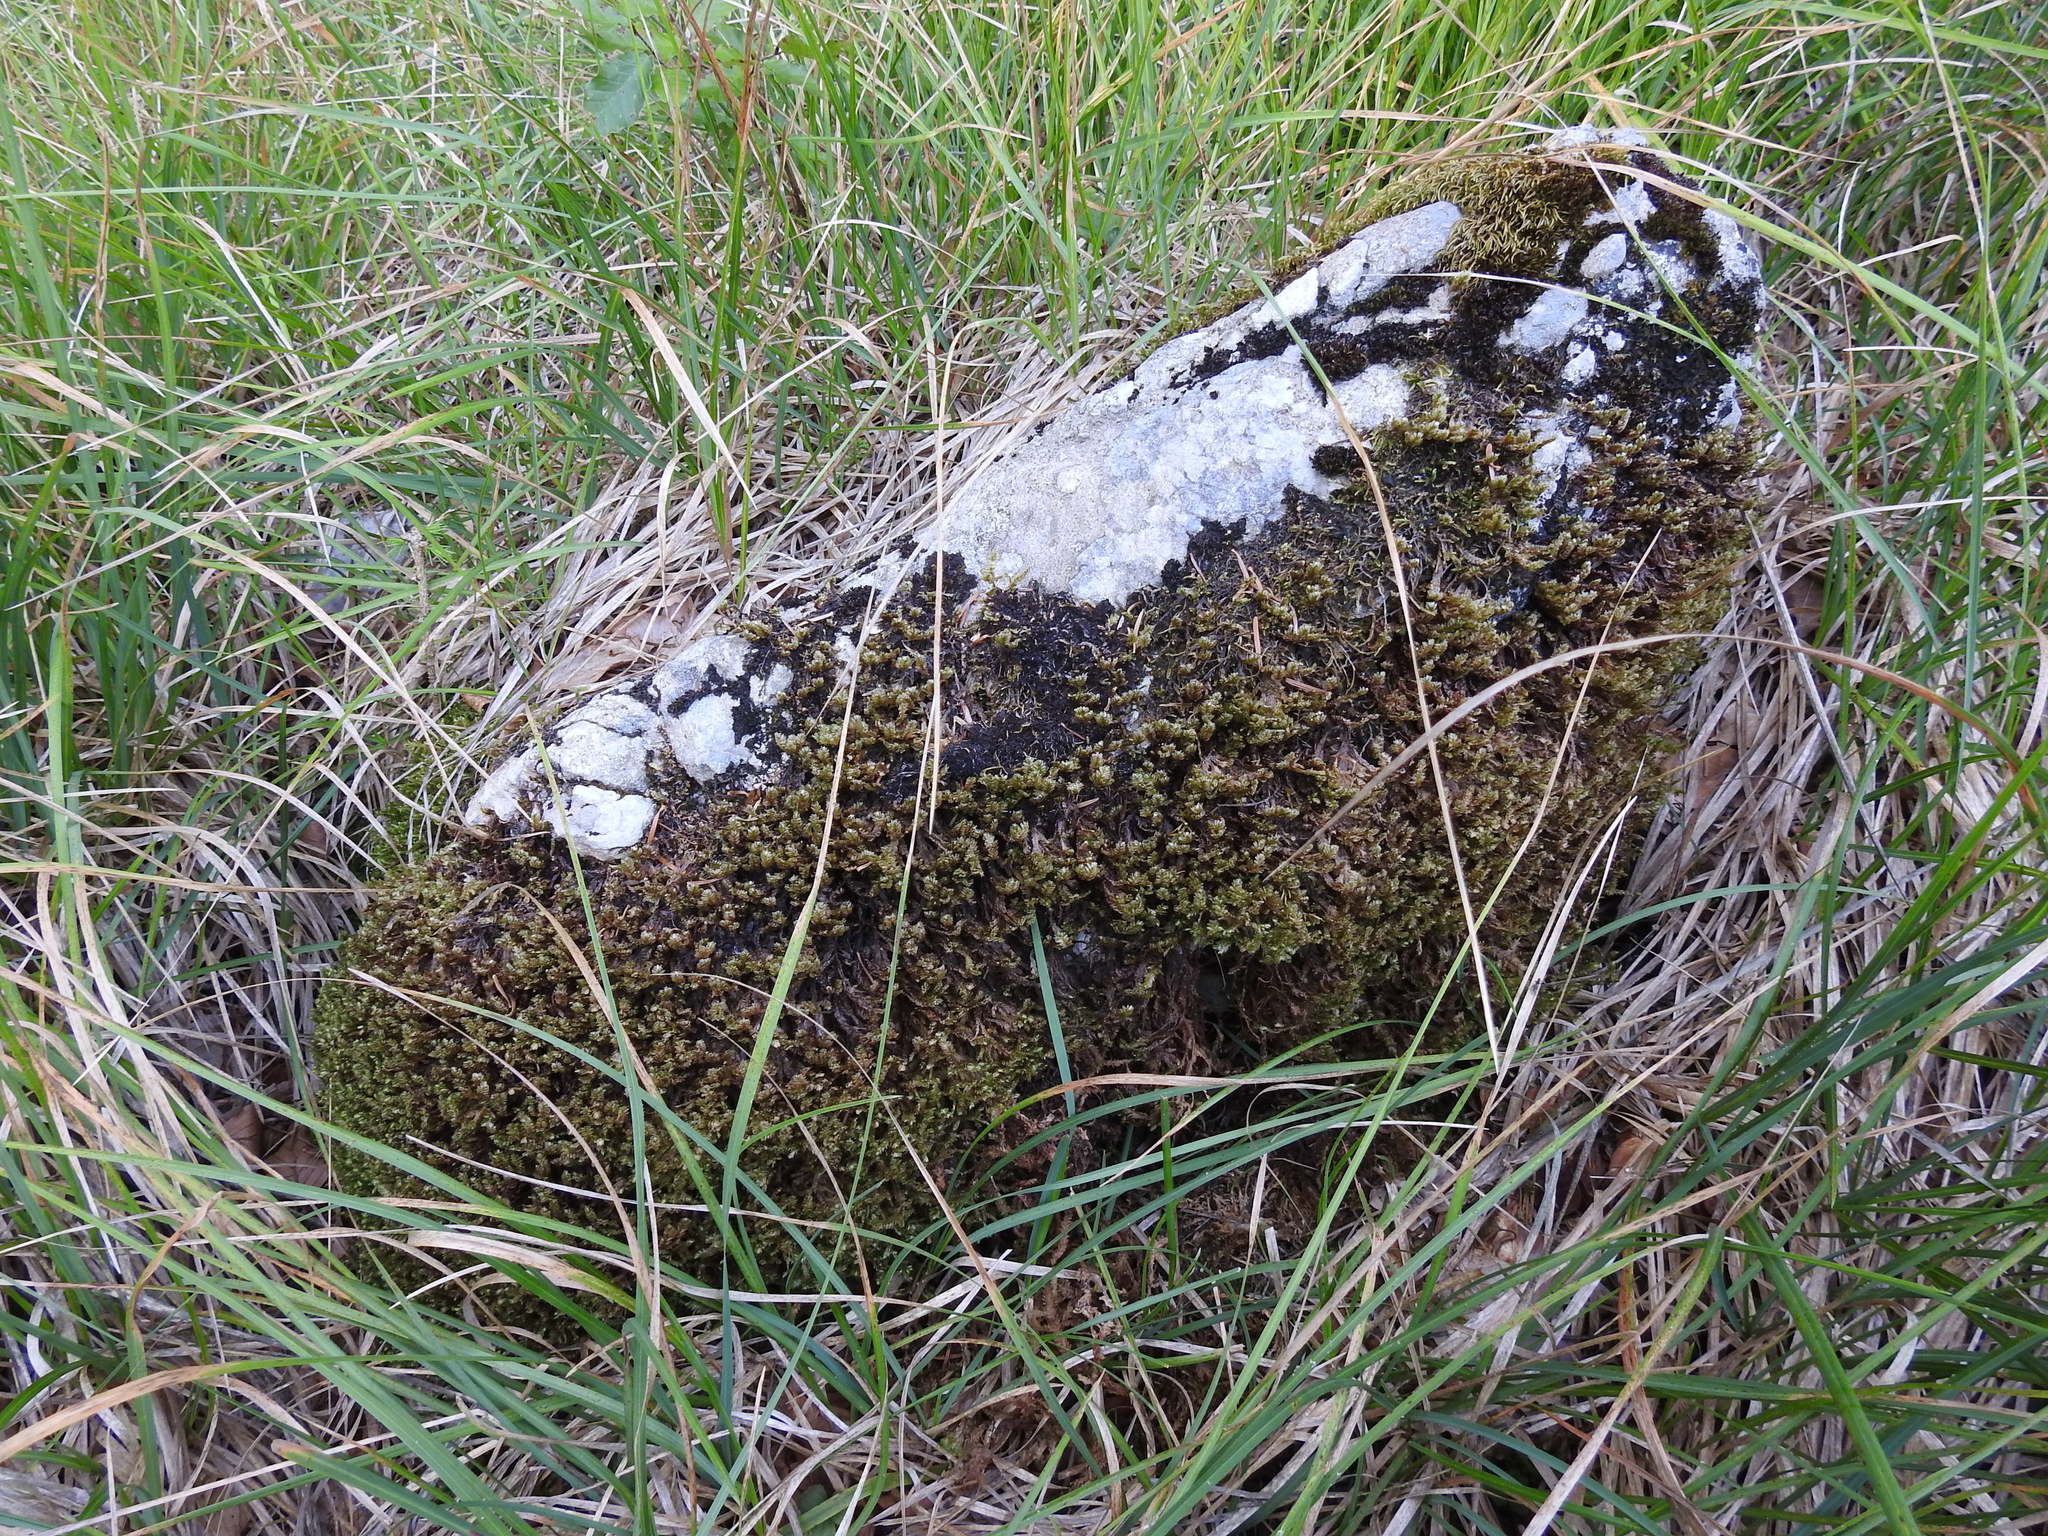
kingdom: Plantae
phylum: Bryophyta
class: Bryopsida
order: Hypnales
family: Neckeraceae
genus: Exsertotheca
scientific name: Exsertotheca crispa
